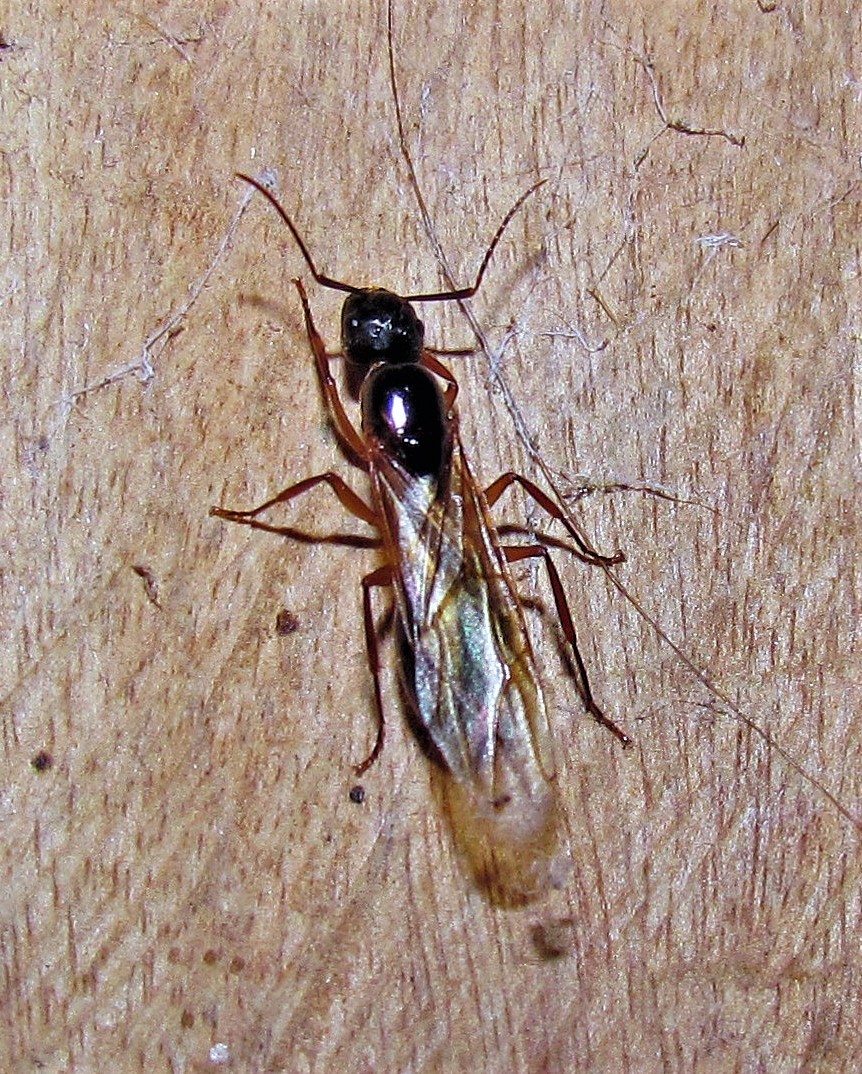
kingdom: Animalia
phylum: Arthropoda
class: Insecta
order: Hymenoptera
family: Formicidae
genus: Camponotus
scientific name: Camponotus renggeri
